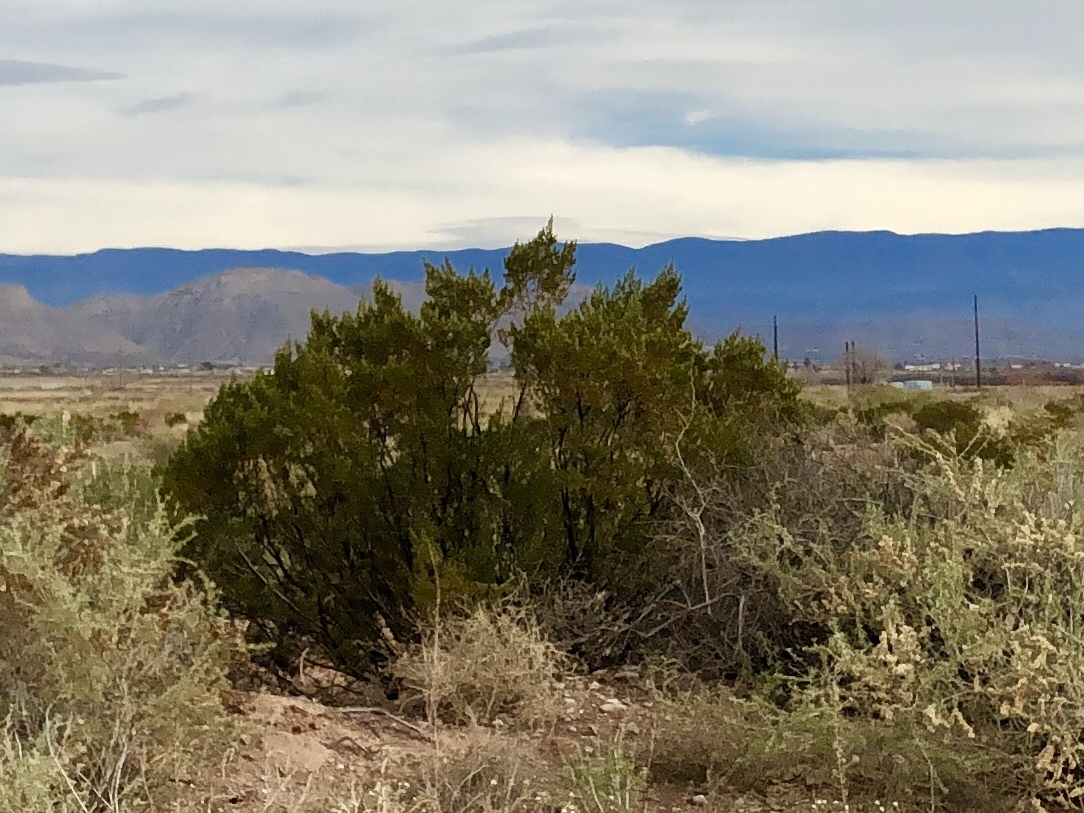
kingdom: Plantae
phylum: Tracheophyta
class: Magnoliopsida
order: Zygophyllales
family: Zygophyllaceae
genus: Larrea
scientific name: Larrea tridentata
